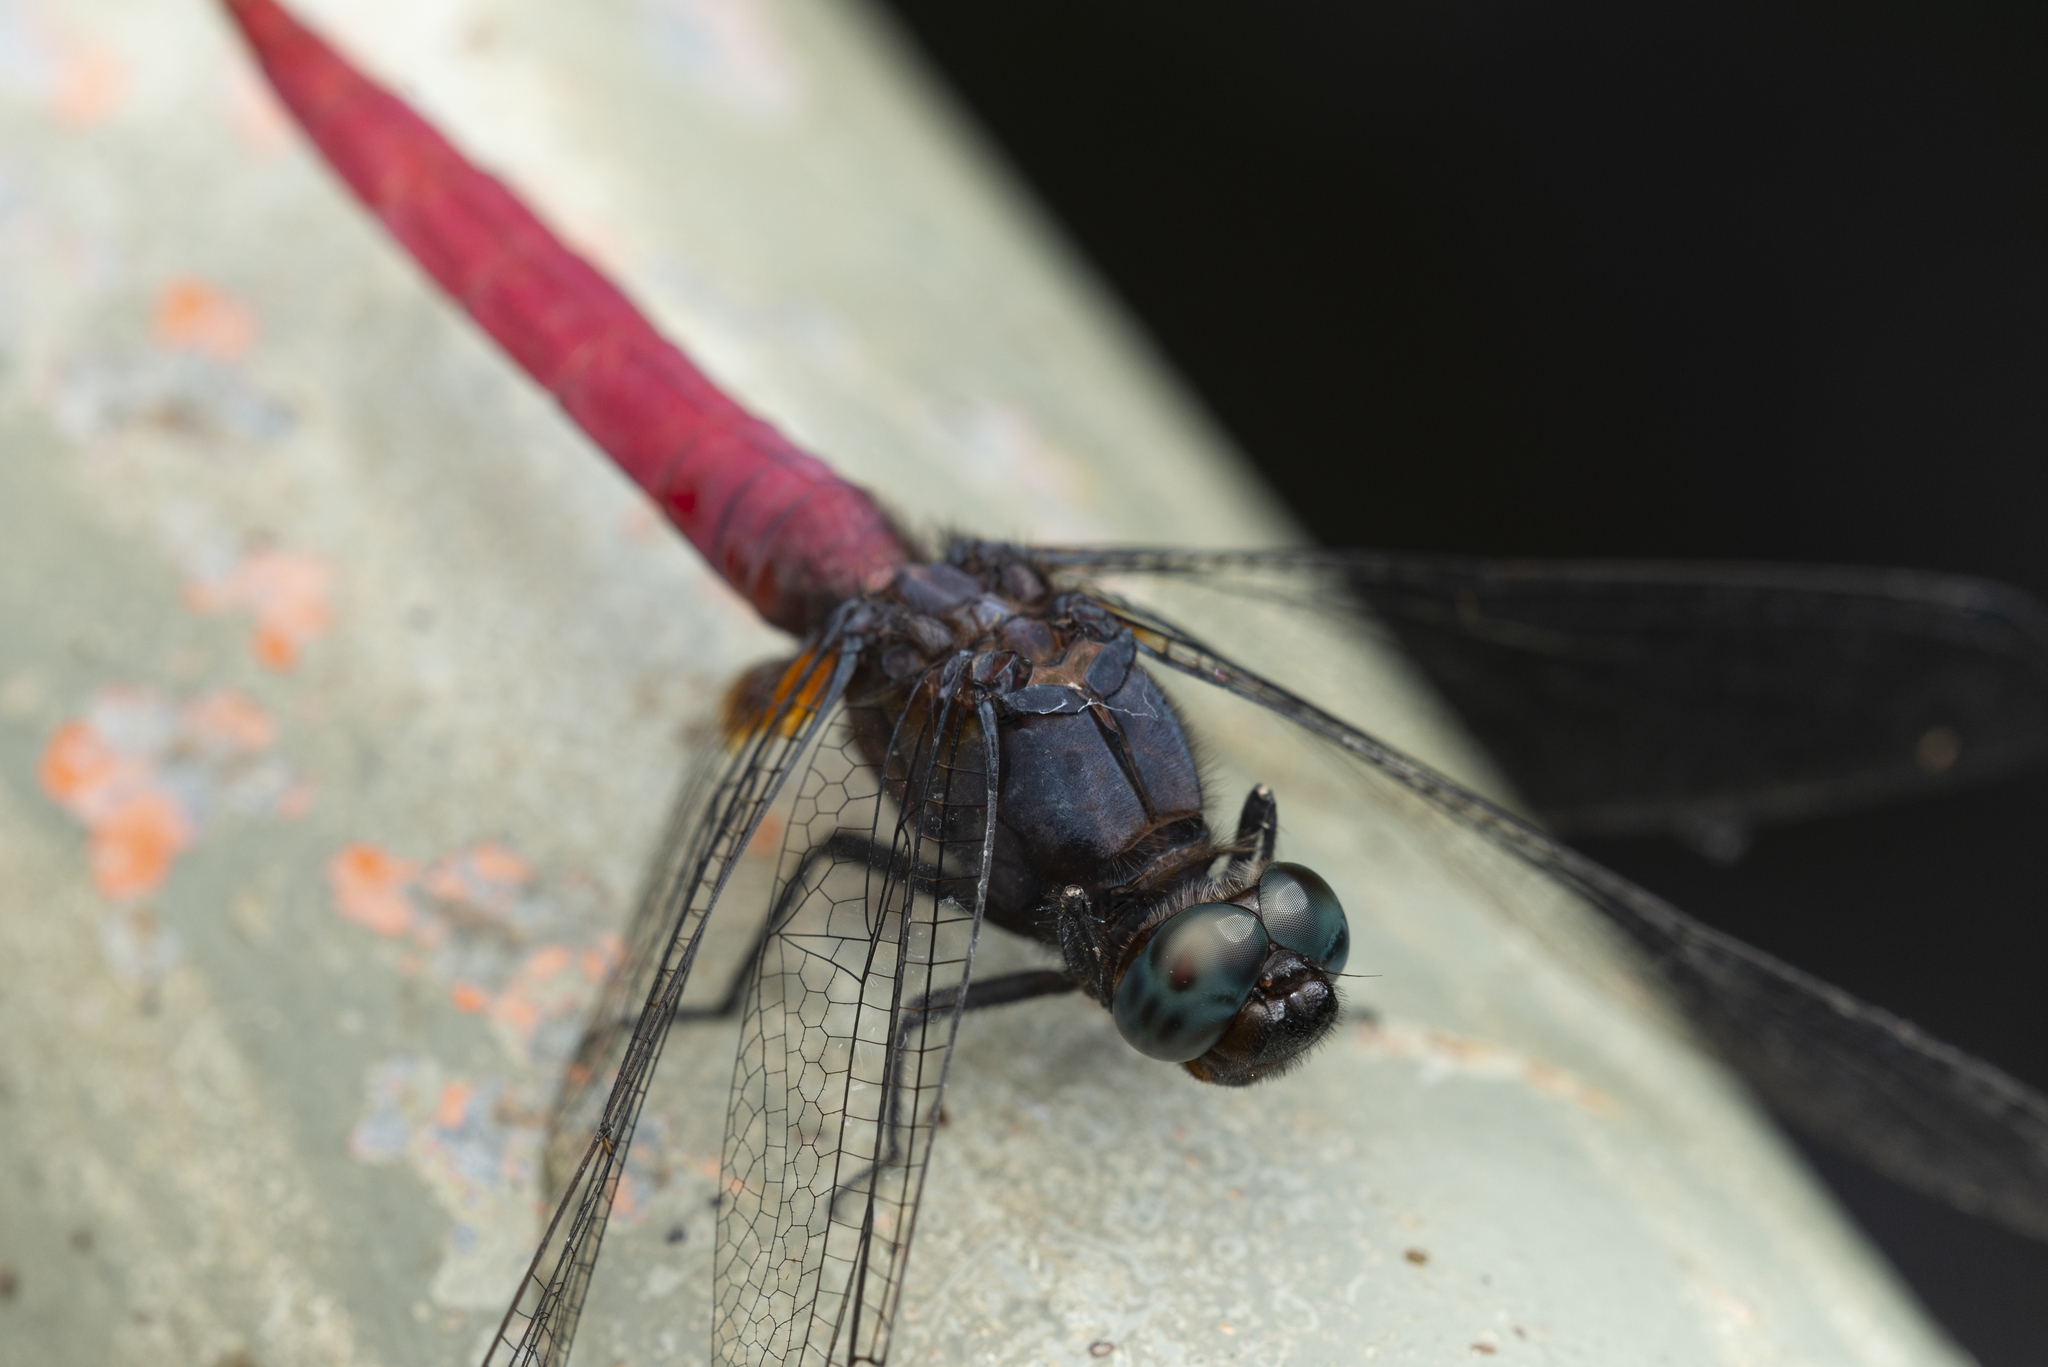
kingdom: Animalia
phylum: Arthropoda
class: Insecta
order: Odonata
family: Libellulidae
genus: Orthetrum
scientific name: Orthetrum pruinosum
